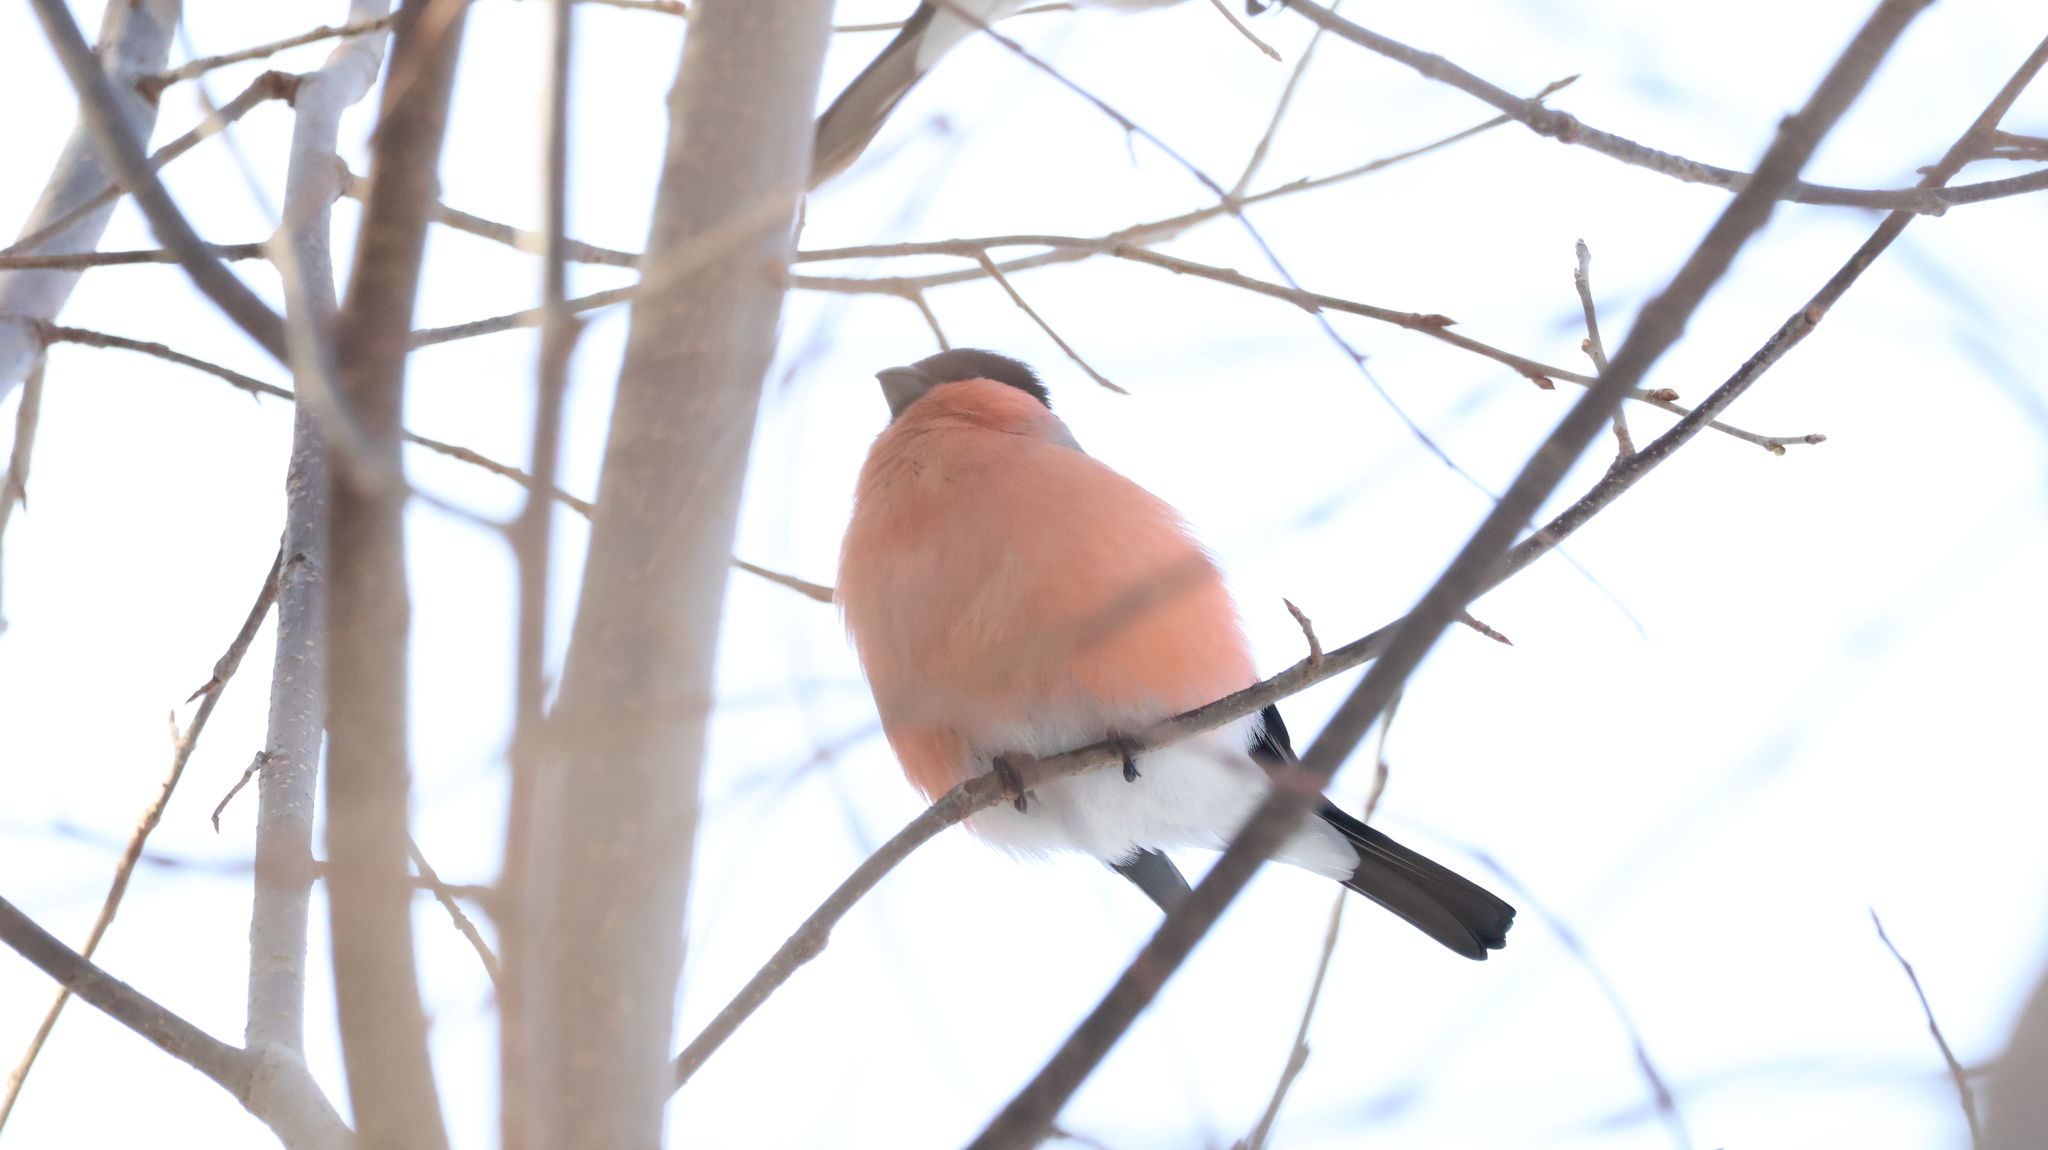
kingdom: Animalia
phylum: Chordata
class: Aves
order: Passeriformes
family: Fringillidae
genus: Pyrrhula
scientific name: Pyrrhula pyrrhula
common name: Eurasian bullfinch
